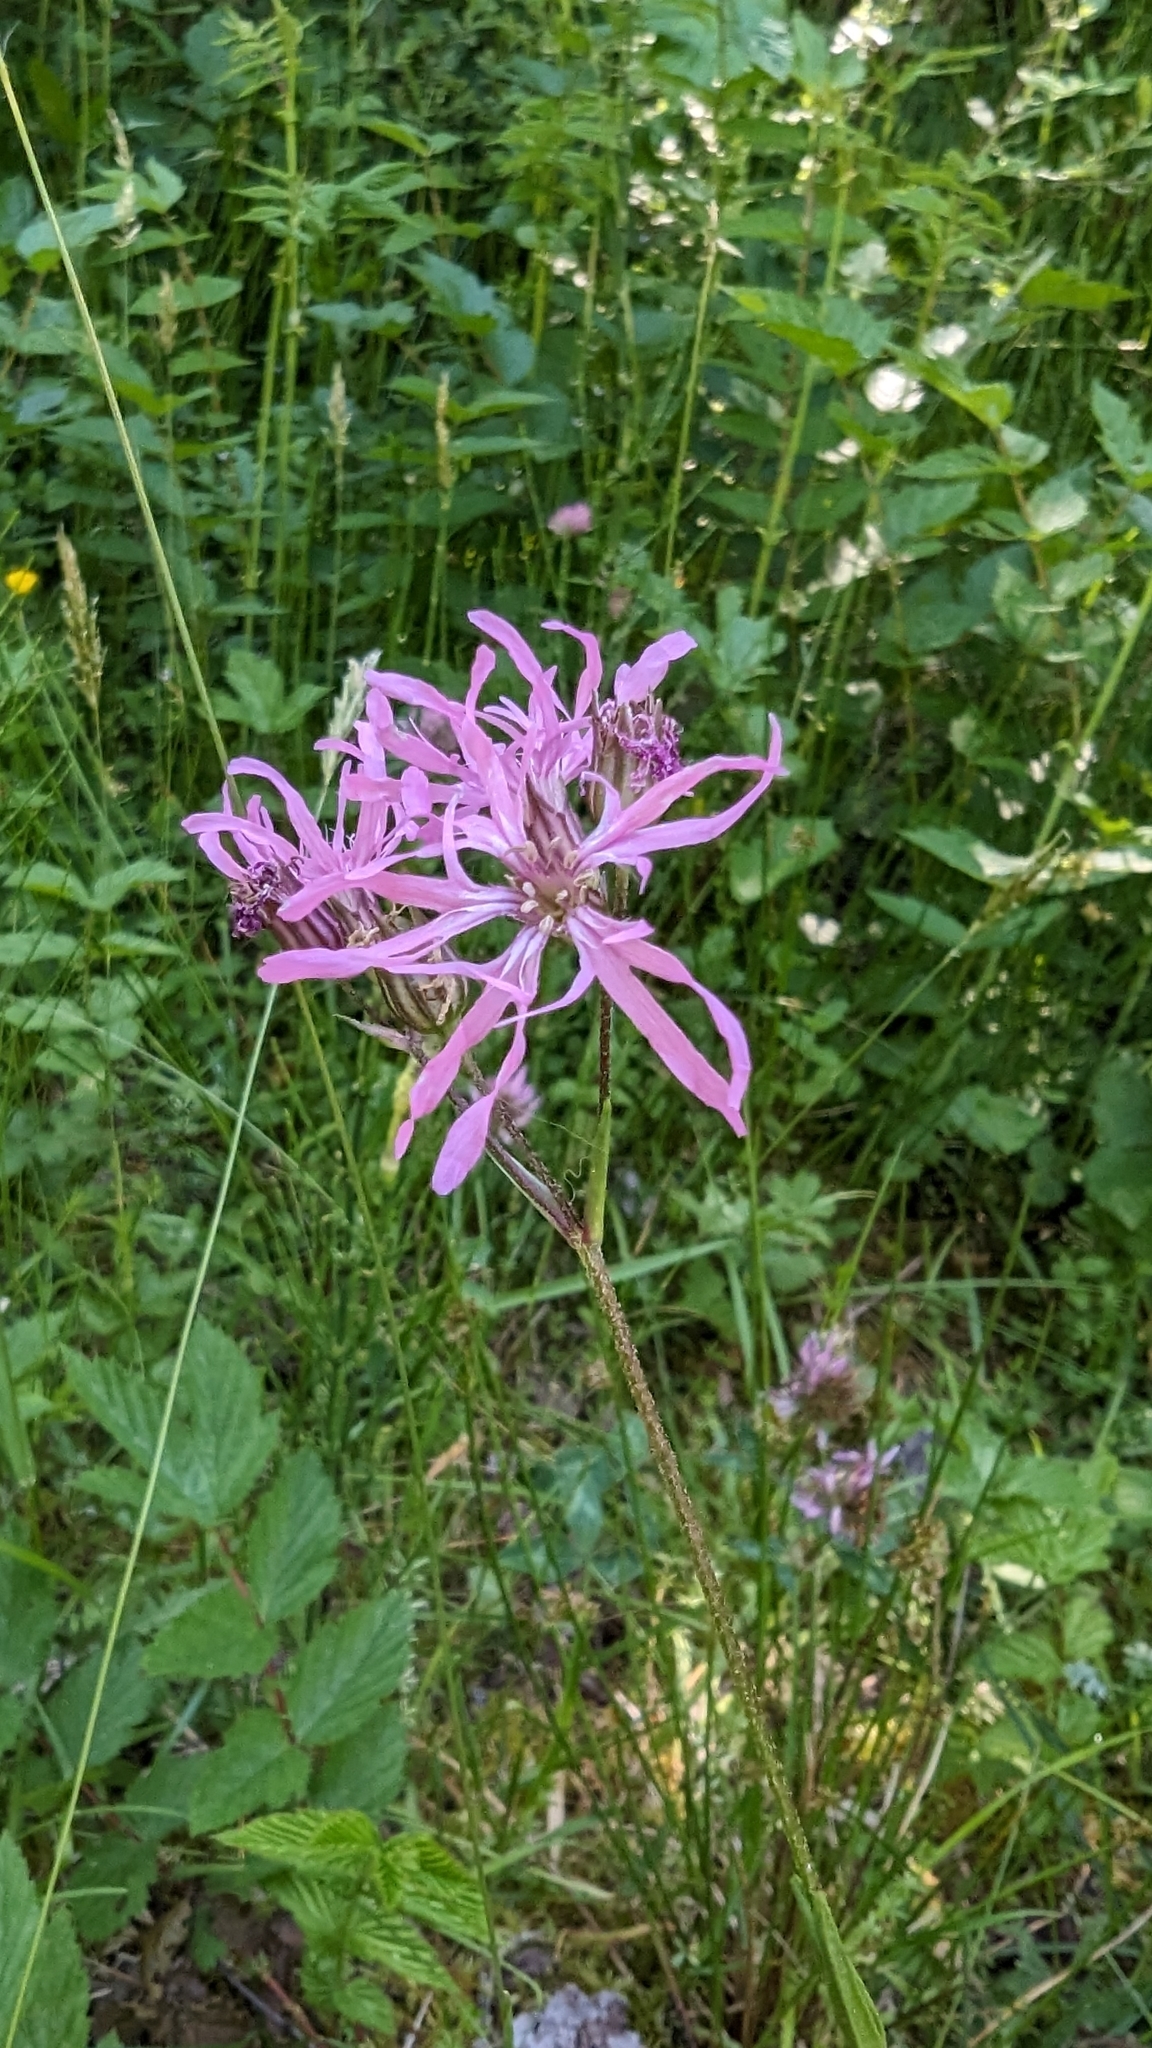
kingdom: Plantae
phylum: Tracheophyta
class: Magnoliopsida
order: Caryophyllales
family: Caryophyllaceae
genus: Silene
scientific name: Silene flos-cuculi
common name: Ragged-robin
